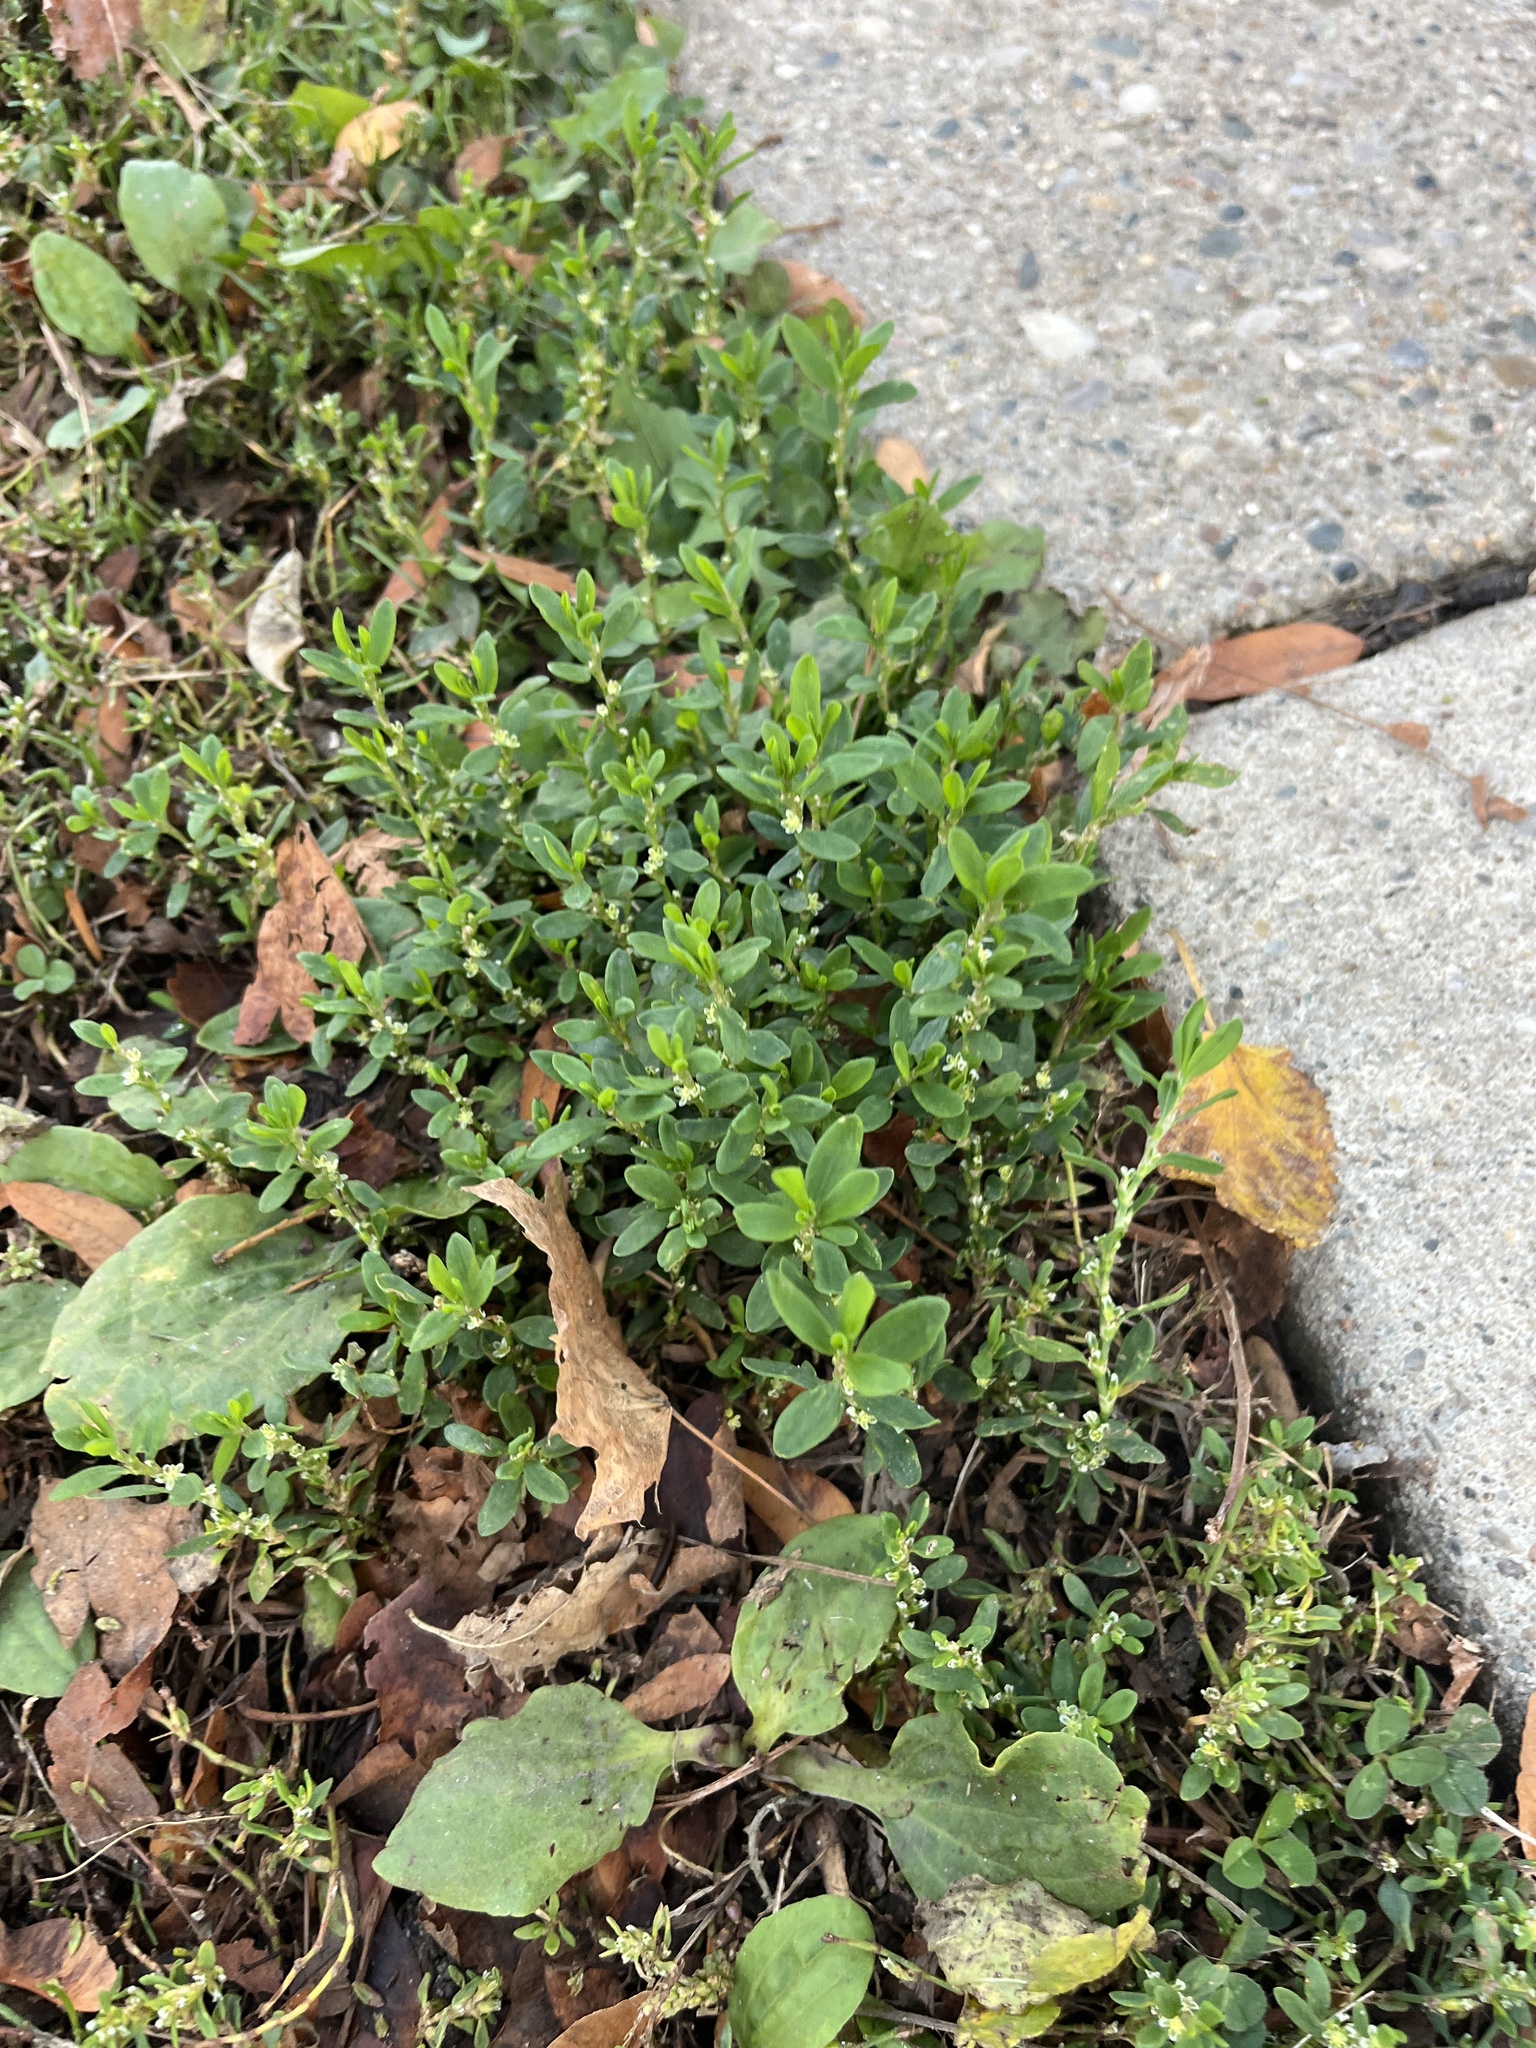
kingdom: Plantae
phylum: Tracheophyta
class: Magnoliopsida
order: Caryophyllales
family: Polygonaceae
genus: Polygonum
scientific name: Polygonum aviculare
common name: Prostrate knotweed
